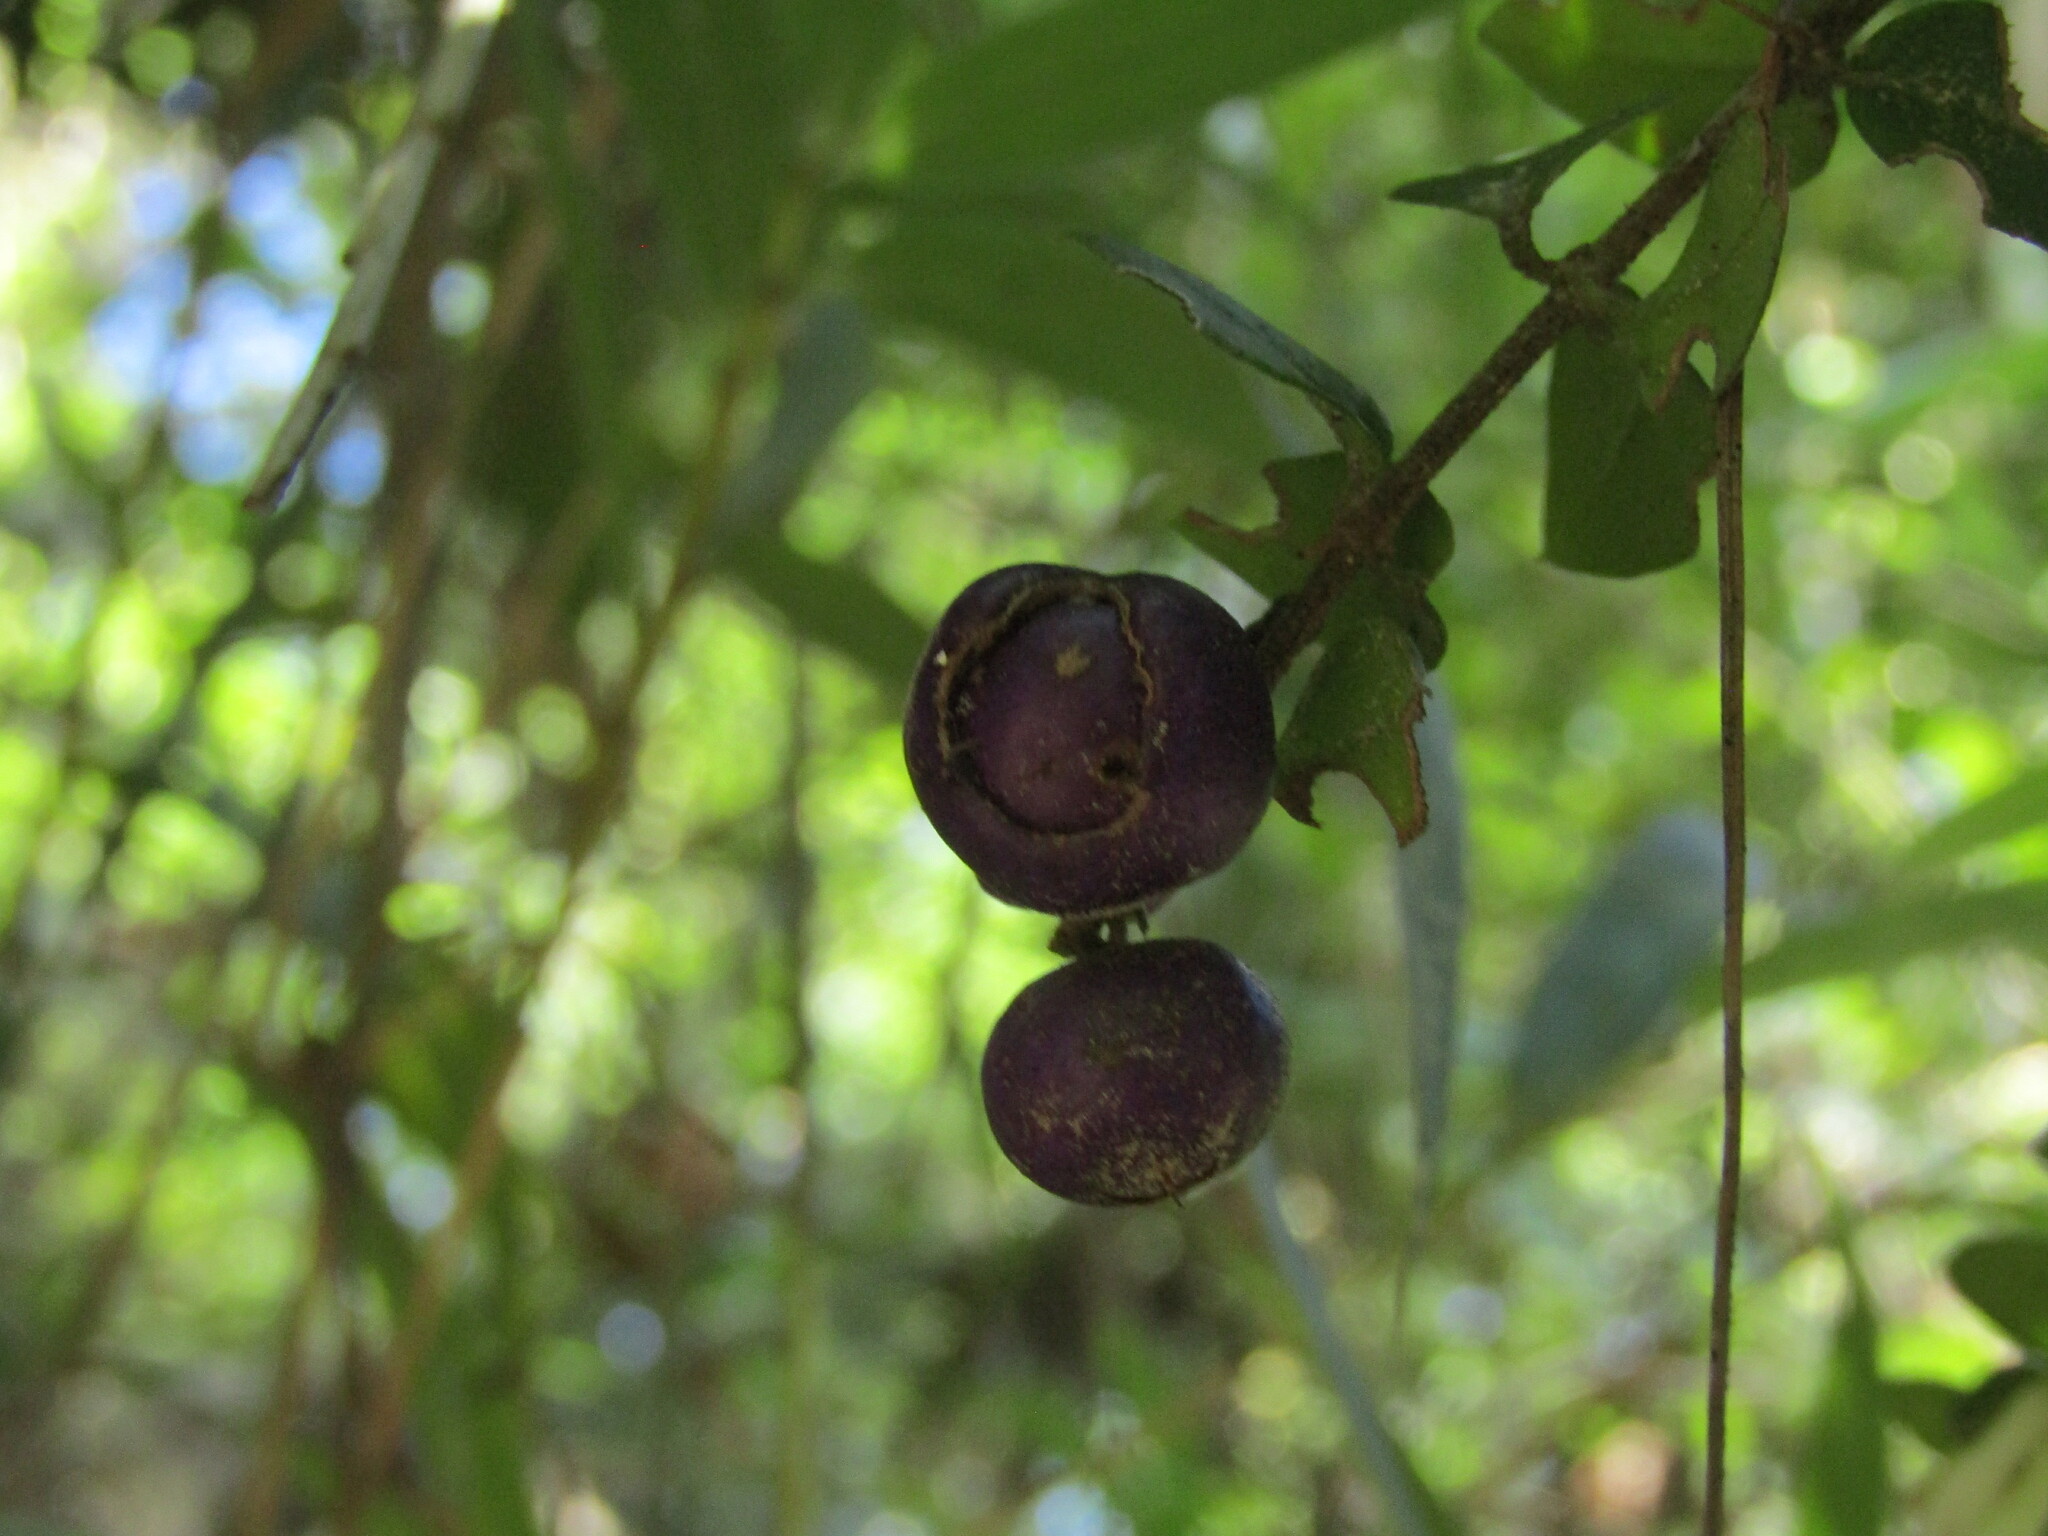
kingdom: Plantae
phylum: Tracheophyta
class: Magnoliopsida
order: Lamiales
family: Verbenaceae
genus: Rhaphithamnus
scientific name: Rhaphithamnus spinosus
